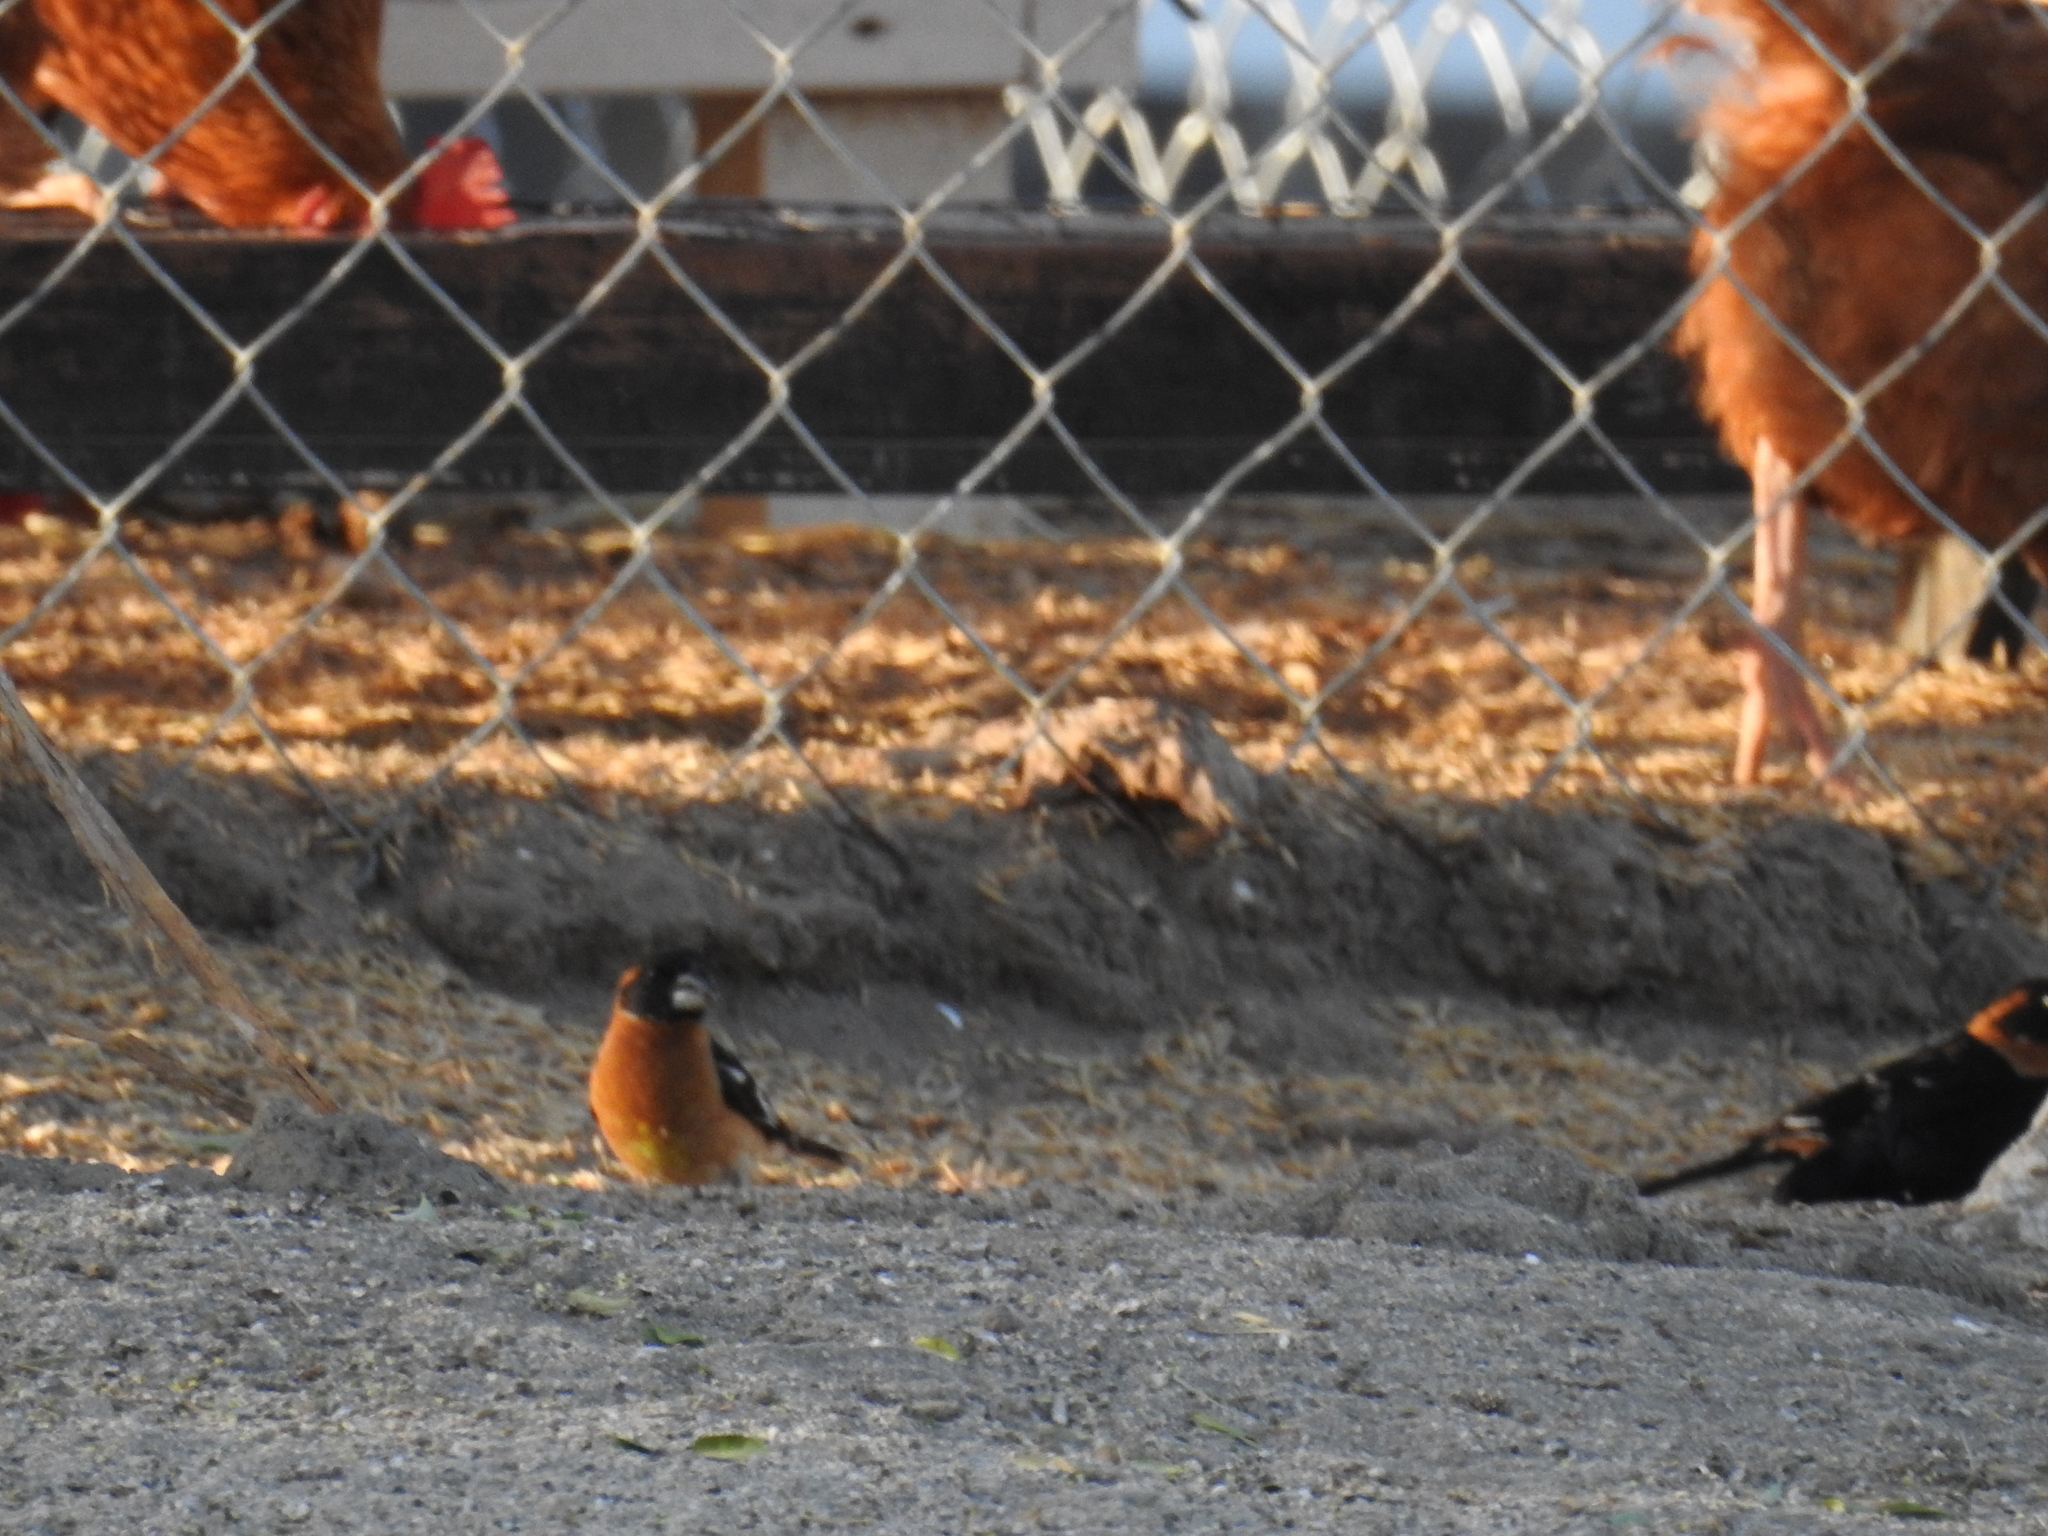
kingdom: Animalia
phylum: Chordata
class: Aves
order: Passeriformes
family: Cardinalidae
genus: Pheucticus
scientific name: Pheucticus melanocephalus
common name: Black-headed grosbeak
